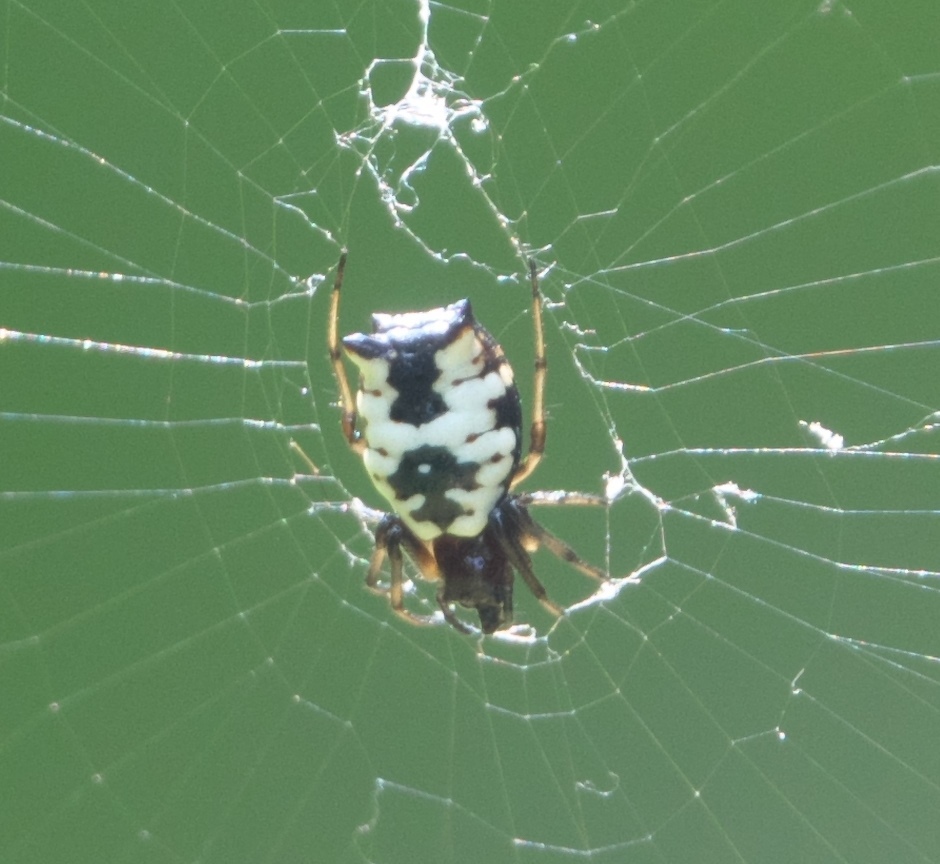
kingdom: Animalia
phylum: Arthropoda
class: Arachnida
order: Araneae
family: Araneidae
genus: Micrathena
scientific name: Micrathena mitrata
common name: Orb weavers
